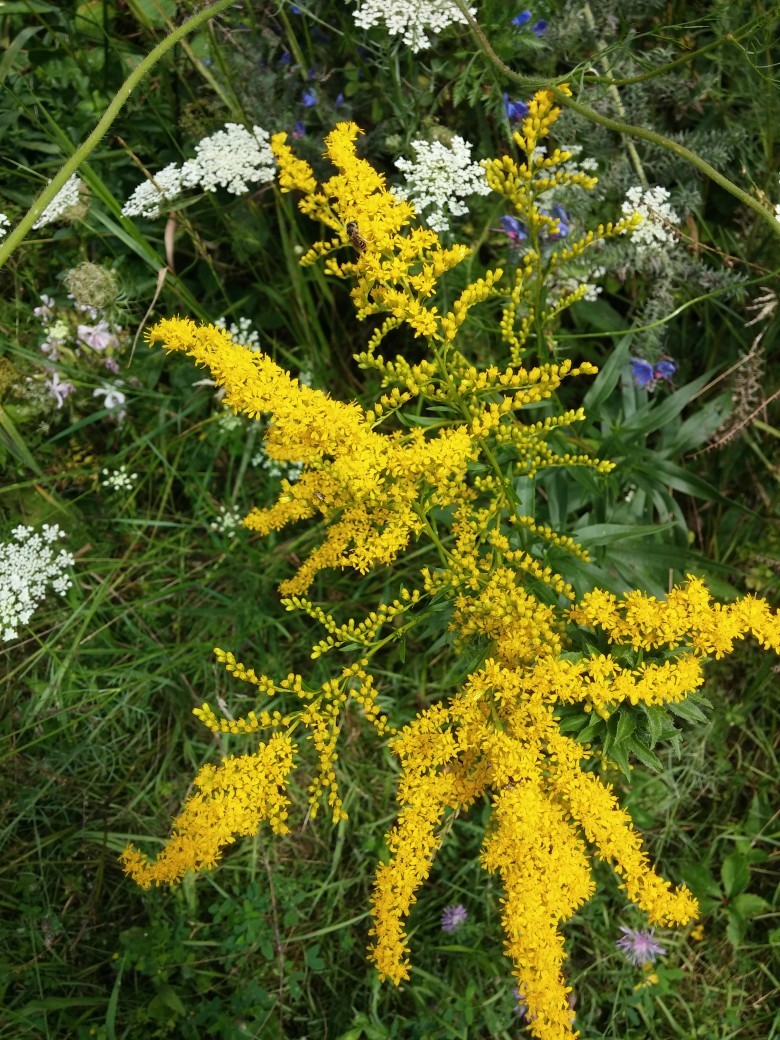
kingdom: Plantae
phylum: Tracheophyta
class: Magnoliopsida
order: Asterales
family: Asteraceae
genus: Solidago
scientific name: Solidago juncea
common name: Early goldenrod
